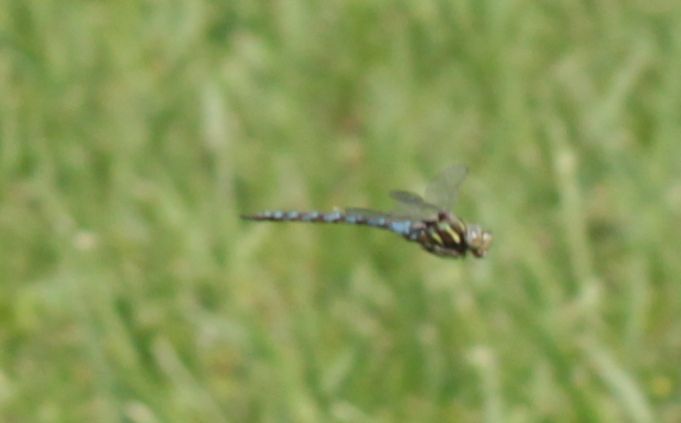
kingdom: Animalia
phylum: Arthropoda
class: Insecta
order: Odonata
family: Aeshnidae
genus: Basiaeschna
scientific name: Basiaeschna janata
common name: Springtime darner
